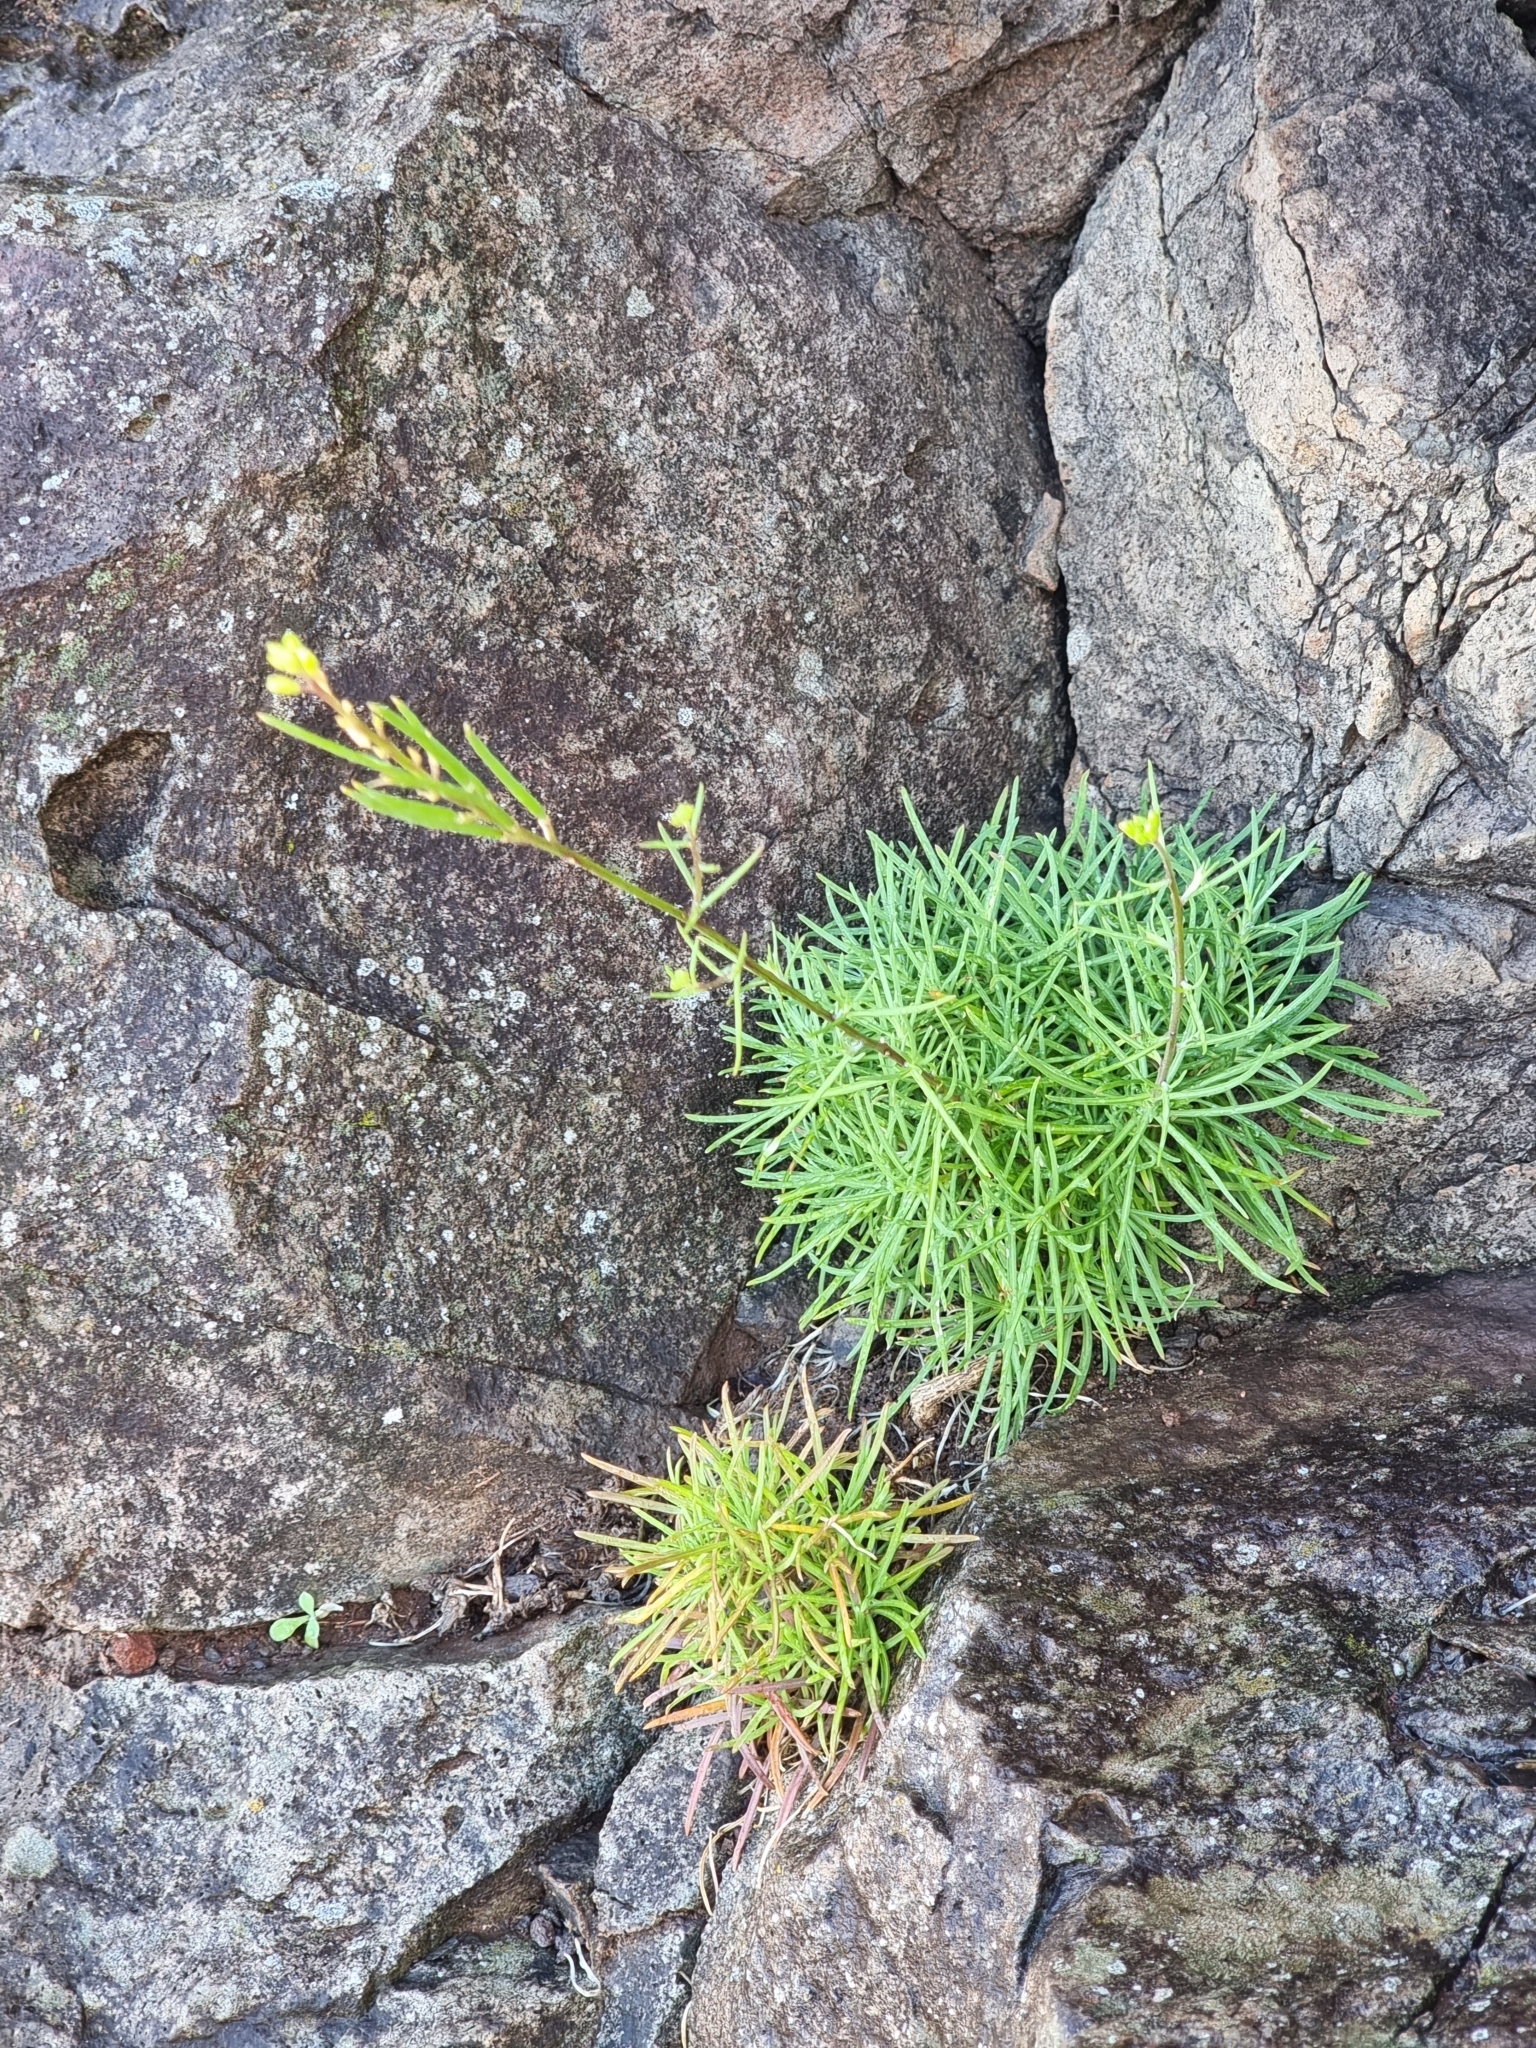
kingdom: Plantae
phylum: Tracheophyta
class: Magnoliopsida
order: Brassicales
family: Brassicaceae
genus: Erysimum
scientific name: Erysimum maderense
